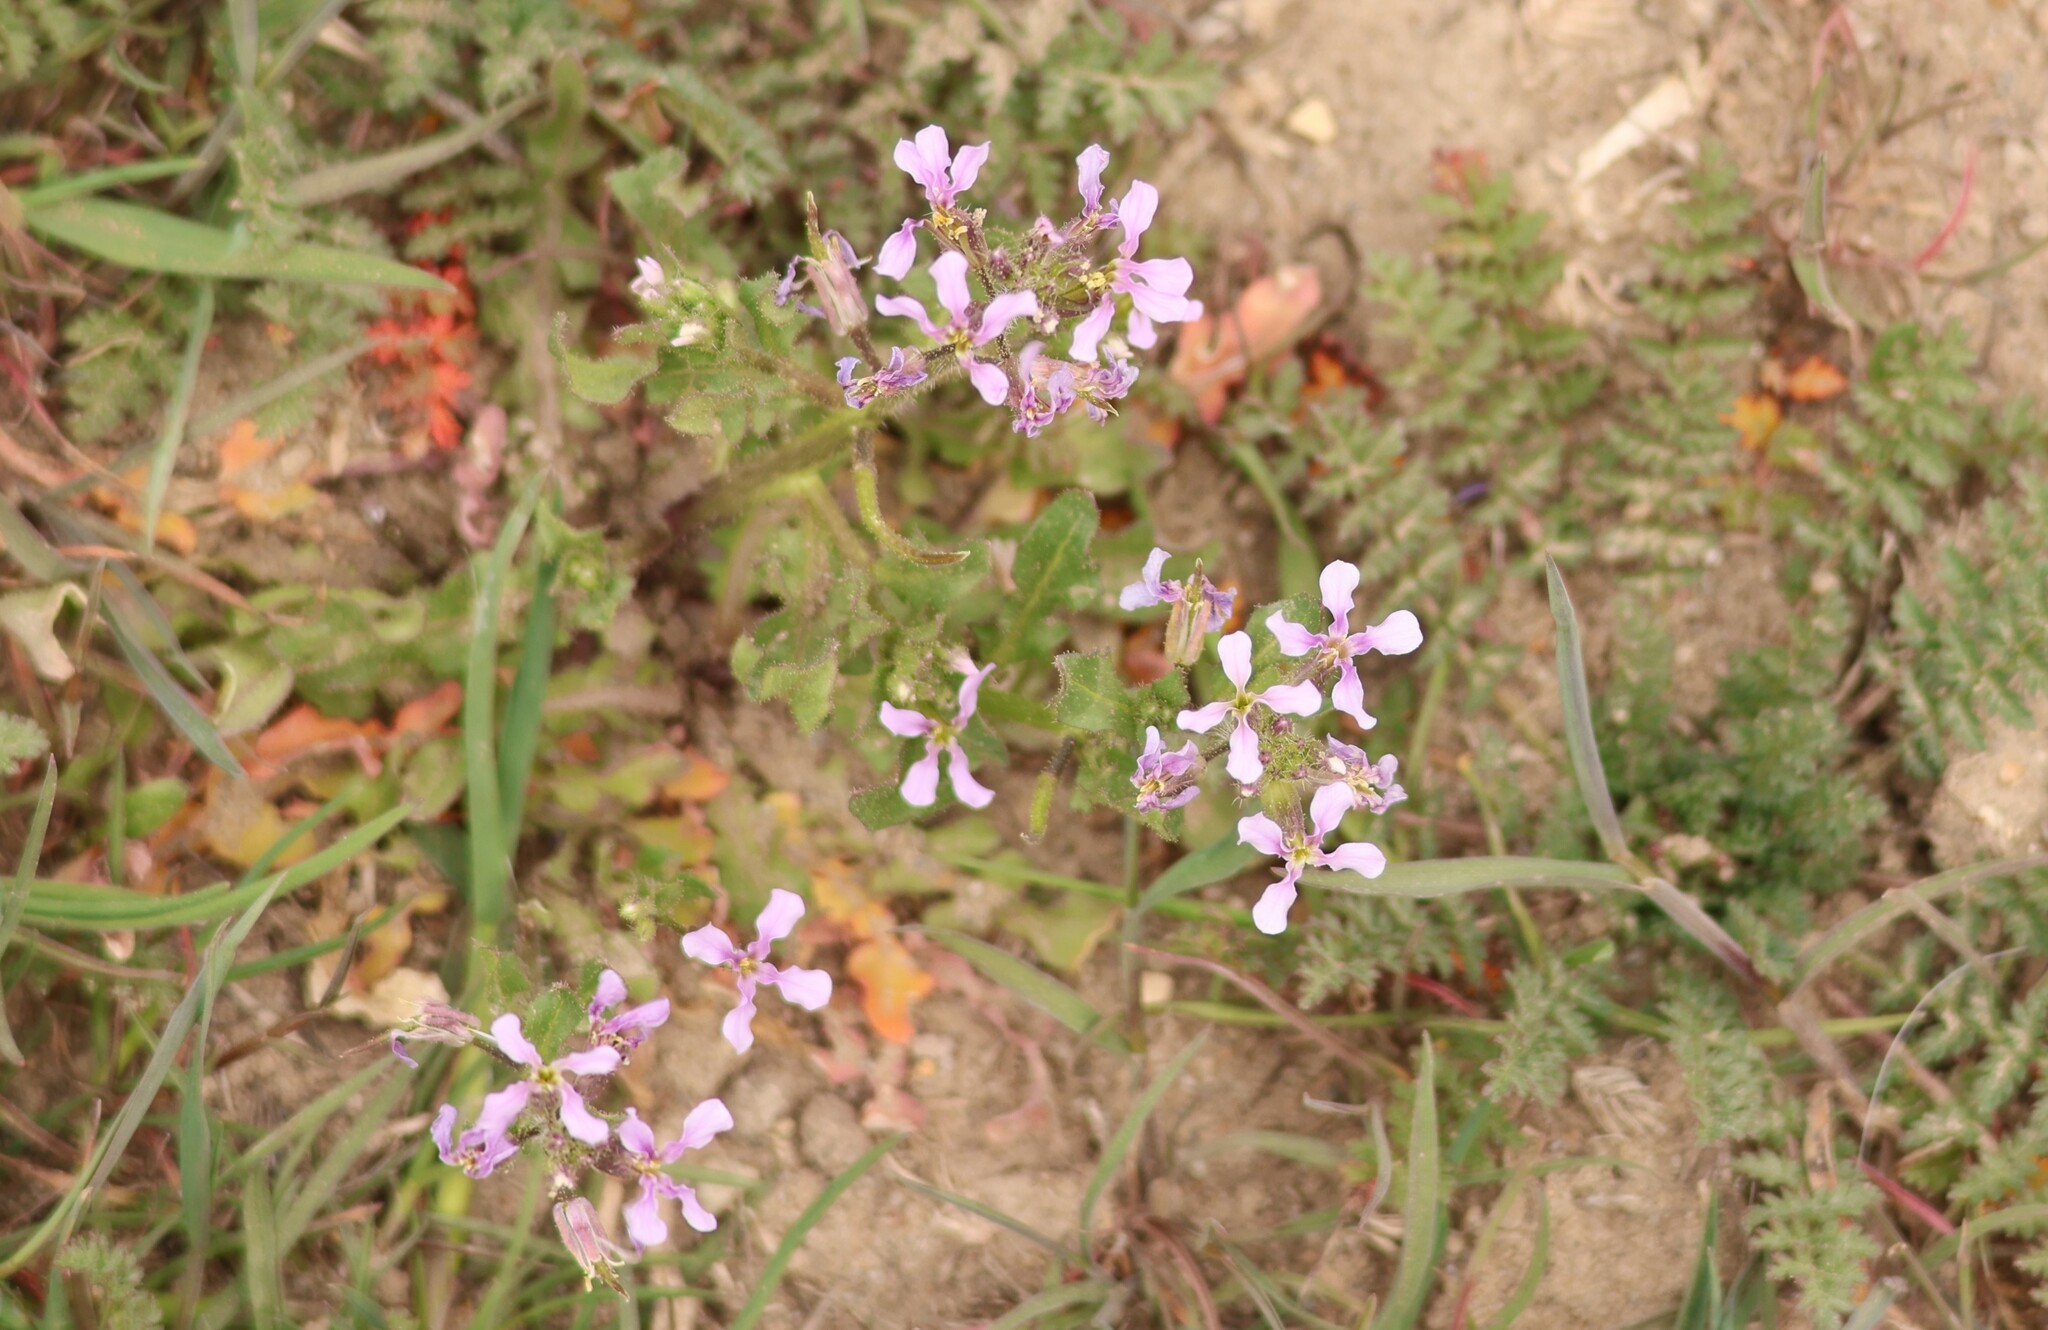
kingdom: Plantae
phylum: Tracheophyta
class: Magnoliopsida
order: Brassicales
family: Brassicaceae
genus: Chorispora
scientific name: Chorispora tenella
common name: Crossflower
